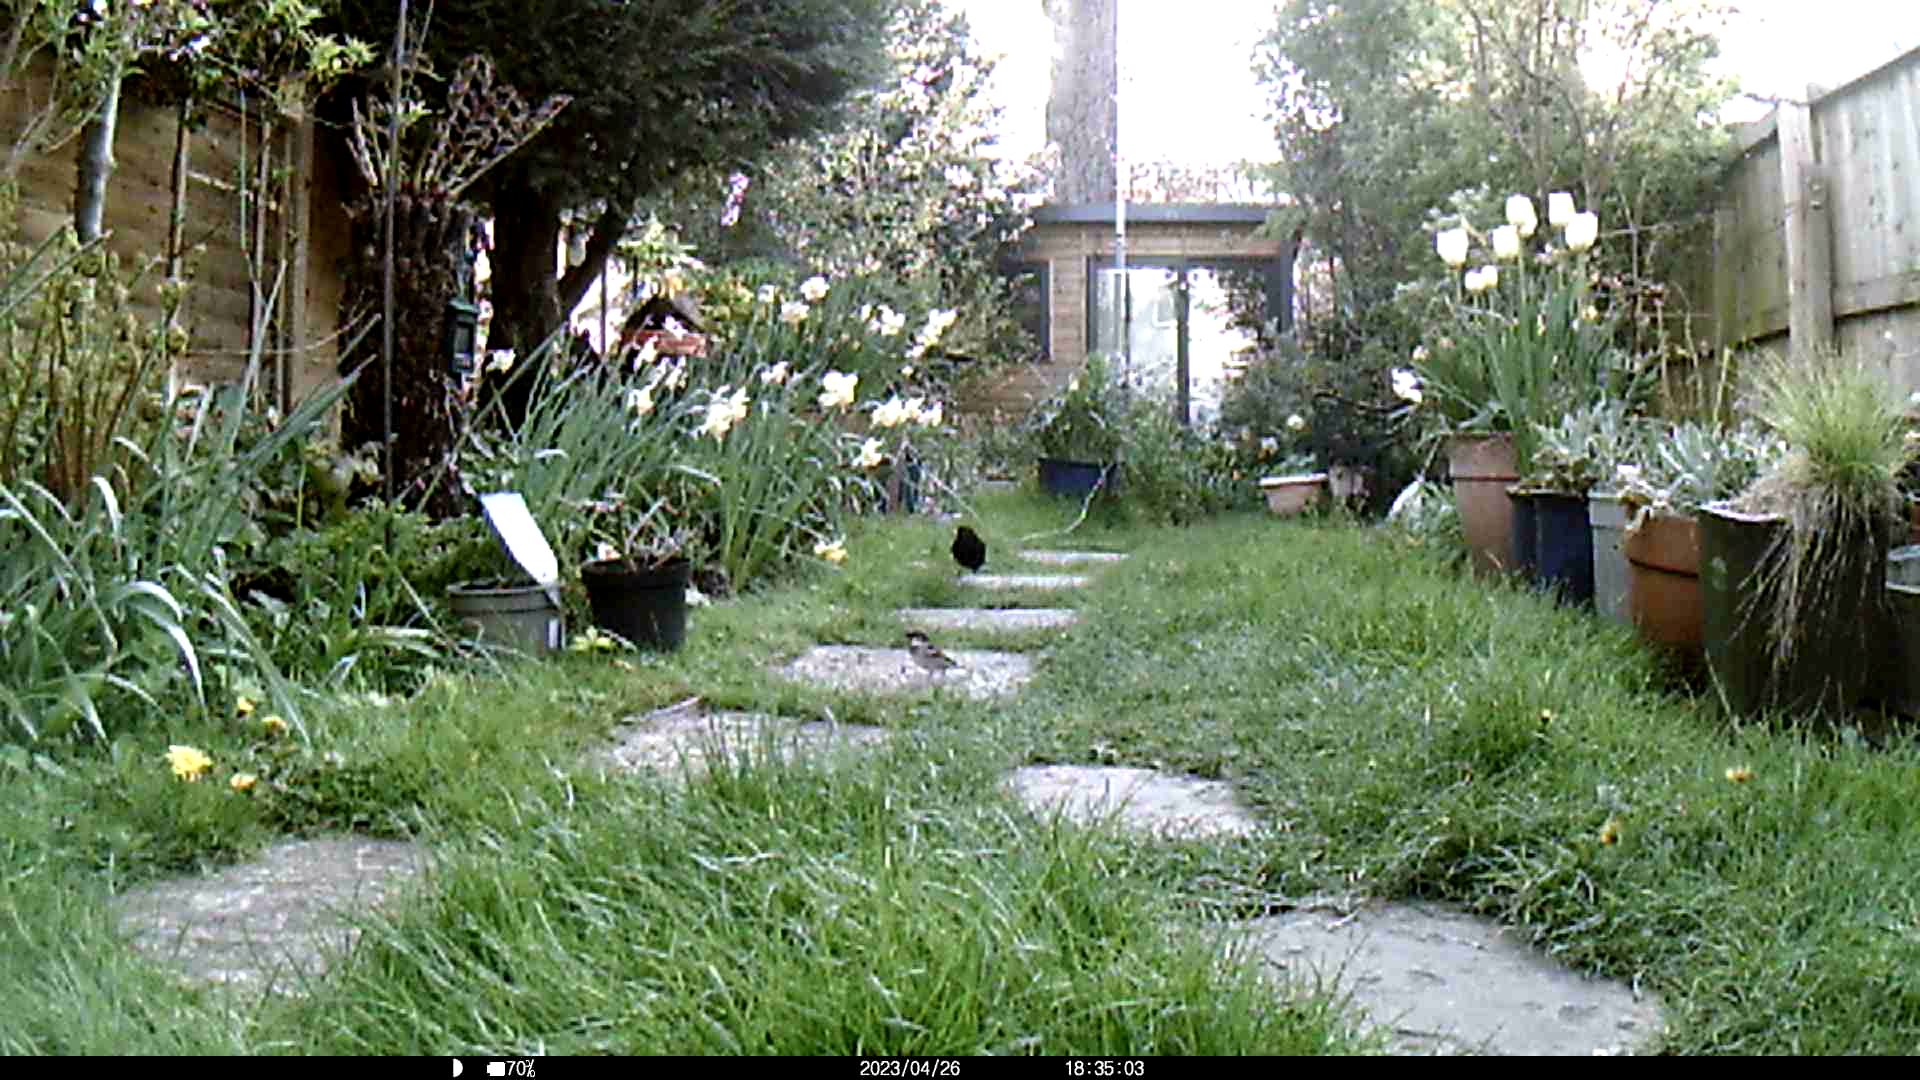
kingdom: Animalia
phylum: Chordata
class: Aves
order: Passeriformes
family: Passeridae
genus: Passer
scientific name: Passer domesticus
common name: House sparrow
